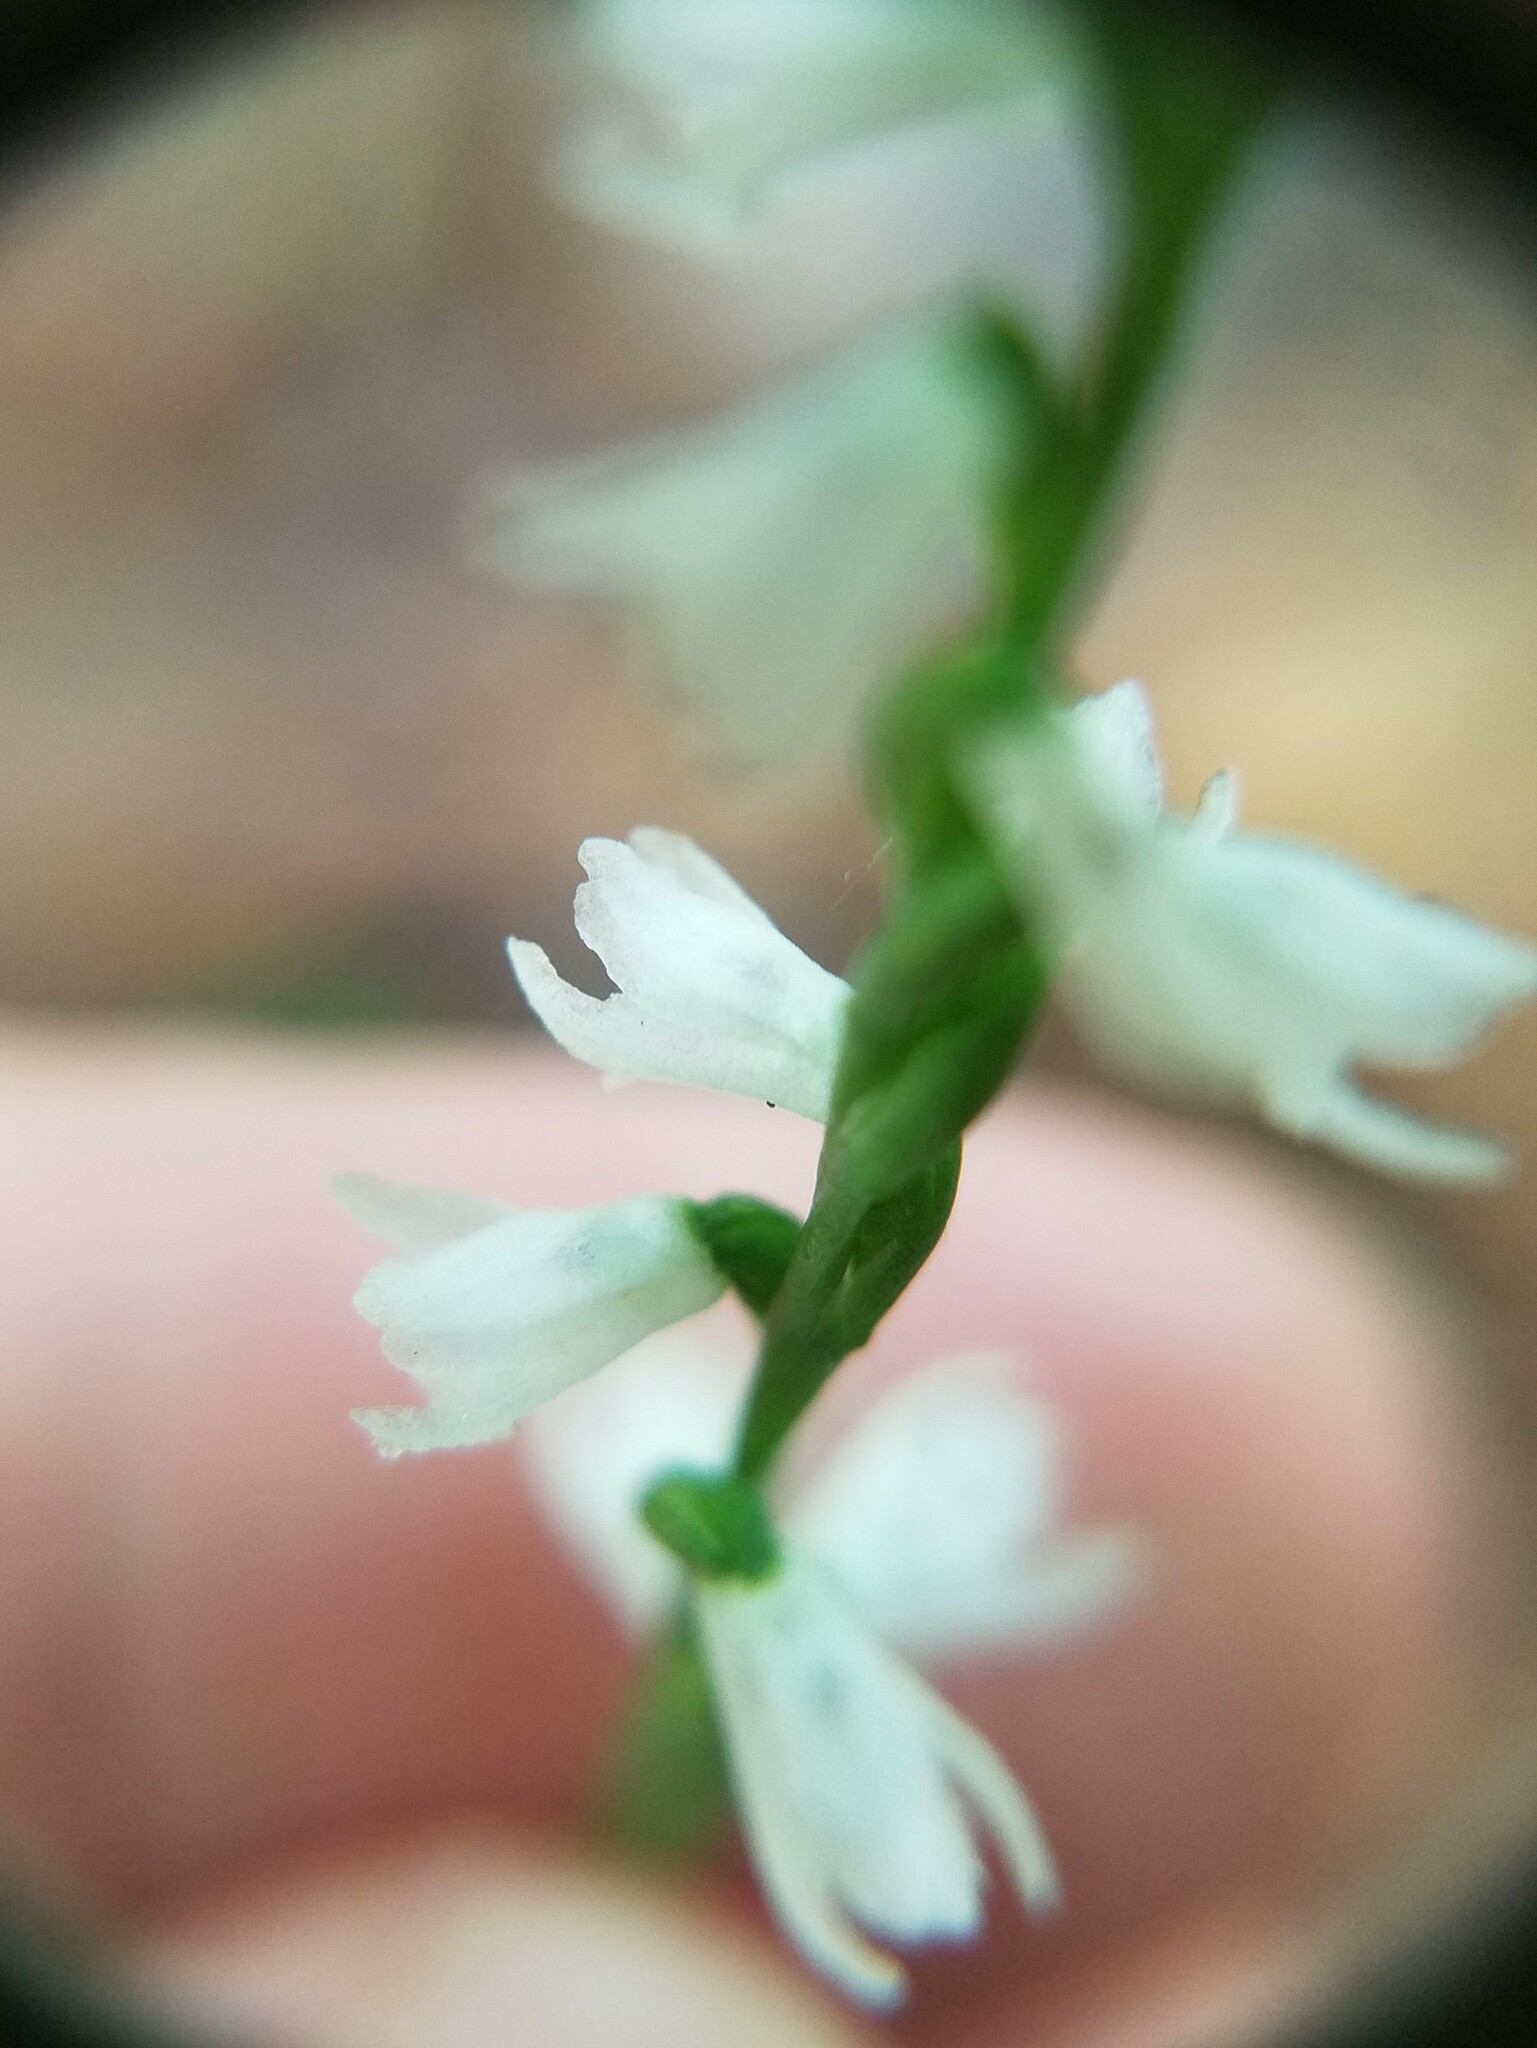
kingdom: Plantae
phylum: Tracheophyta
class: Liliopsida
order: Asparagales
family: Orchidaceae
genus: Spiranthes
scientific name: Spiranthes tuberosa
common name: Little ladies'-tresses
